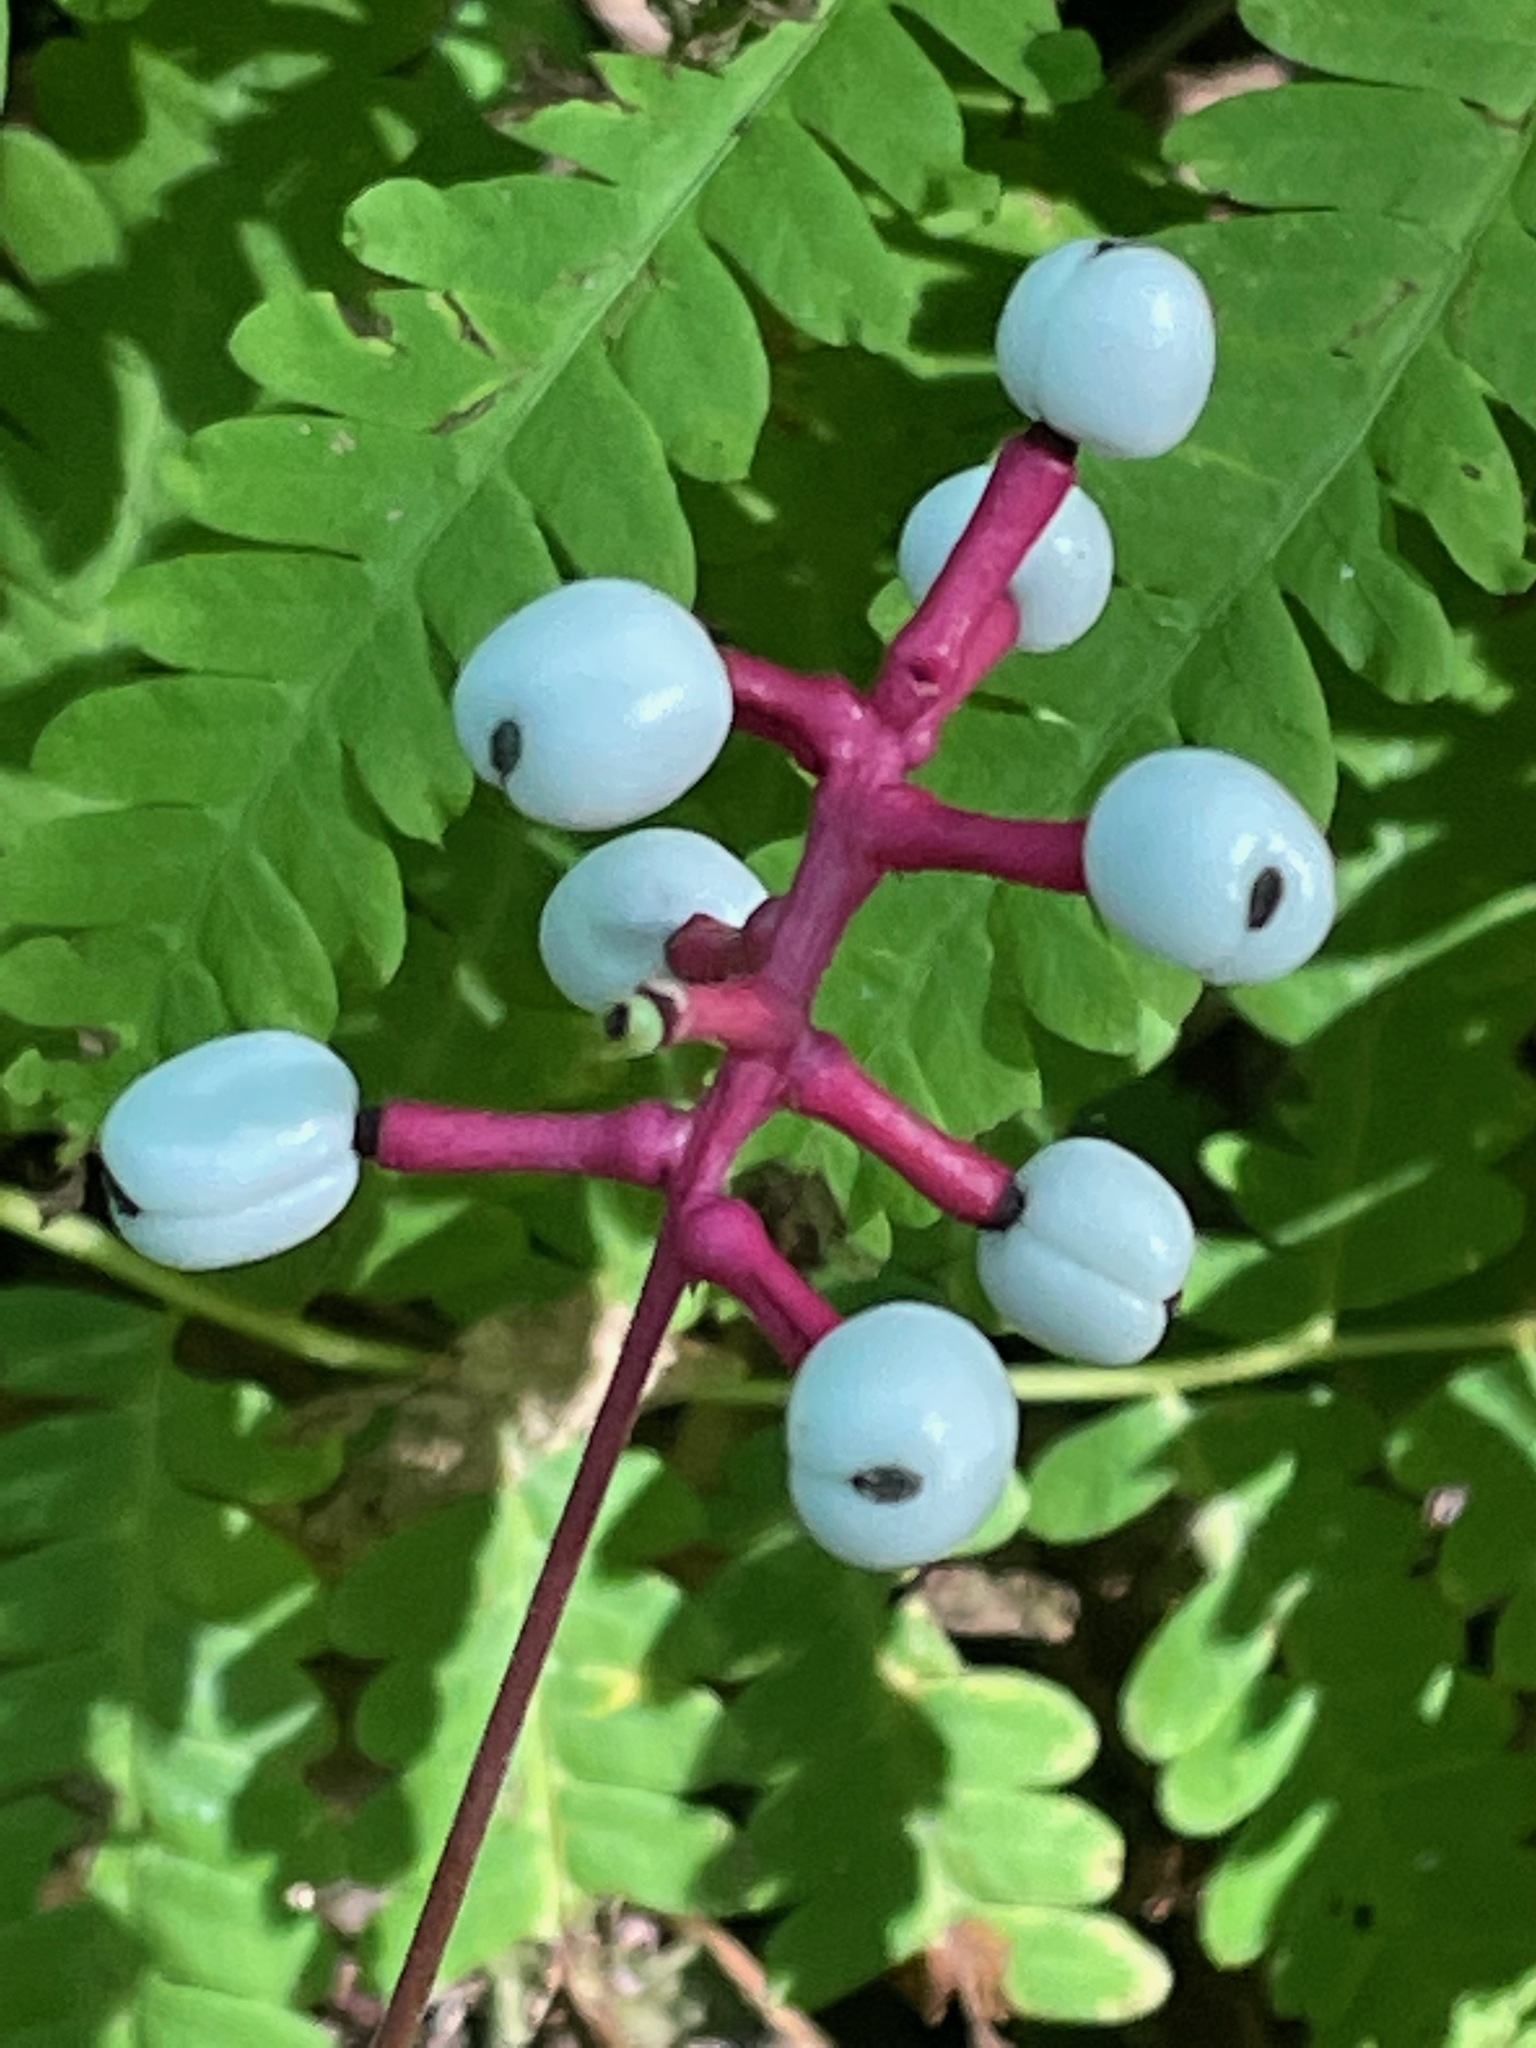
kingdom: Plantae
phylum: Tracheophyta
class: Magnoliopsida
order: Ranunculales
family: Ranunculaceae
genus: Actaea
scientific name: Actaea pachypoda
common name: Doll's-eyes
